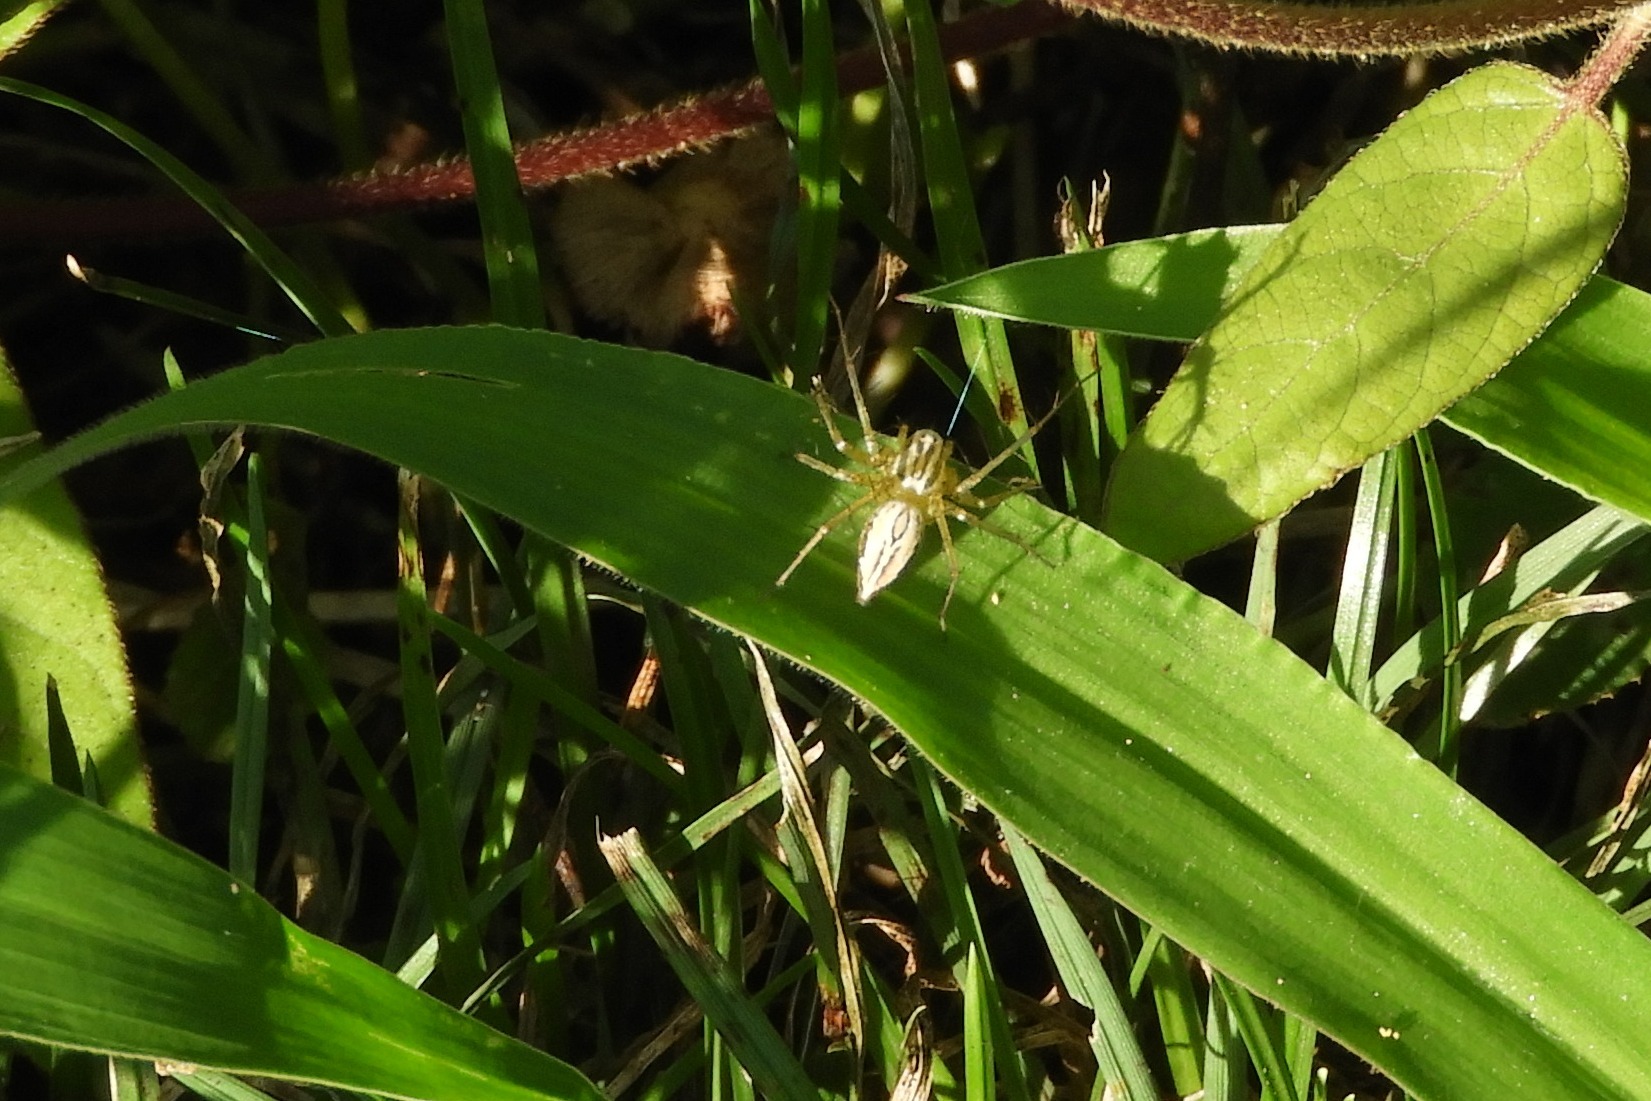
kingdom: Animalia
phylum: Arthropoda
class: Arachnida
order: Araneae
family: Oxyopidae
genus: Oxyopes
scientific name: Oxyopes salticus
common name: Lynx spiders
